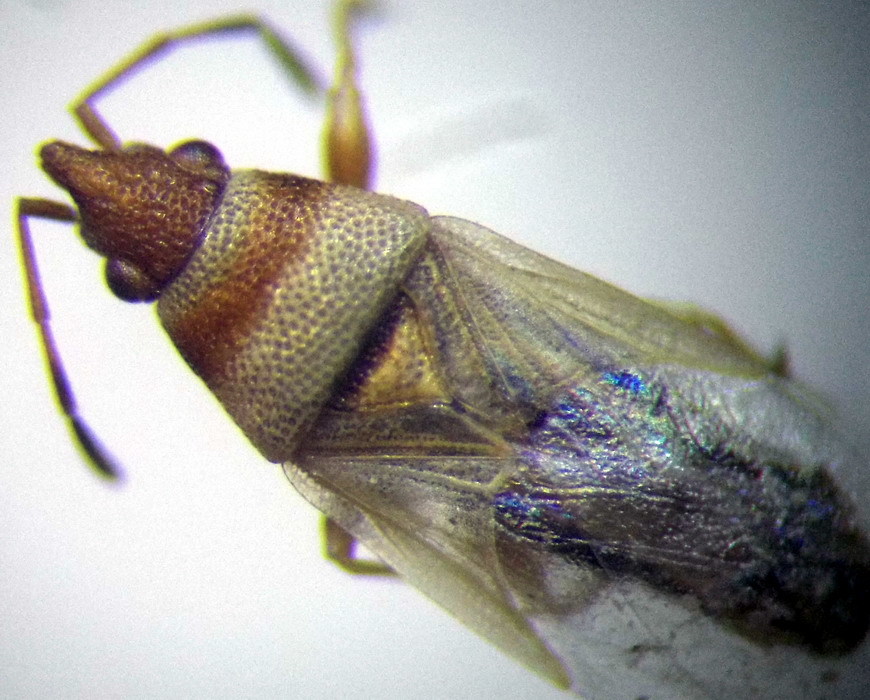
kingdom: Animalia
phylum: Arthropoda
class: Insecta
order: Hemiptera
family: Oxycarenidae
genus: Oxycarenus
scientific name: Oxycarenus pallens
